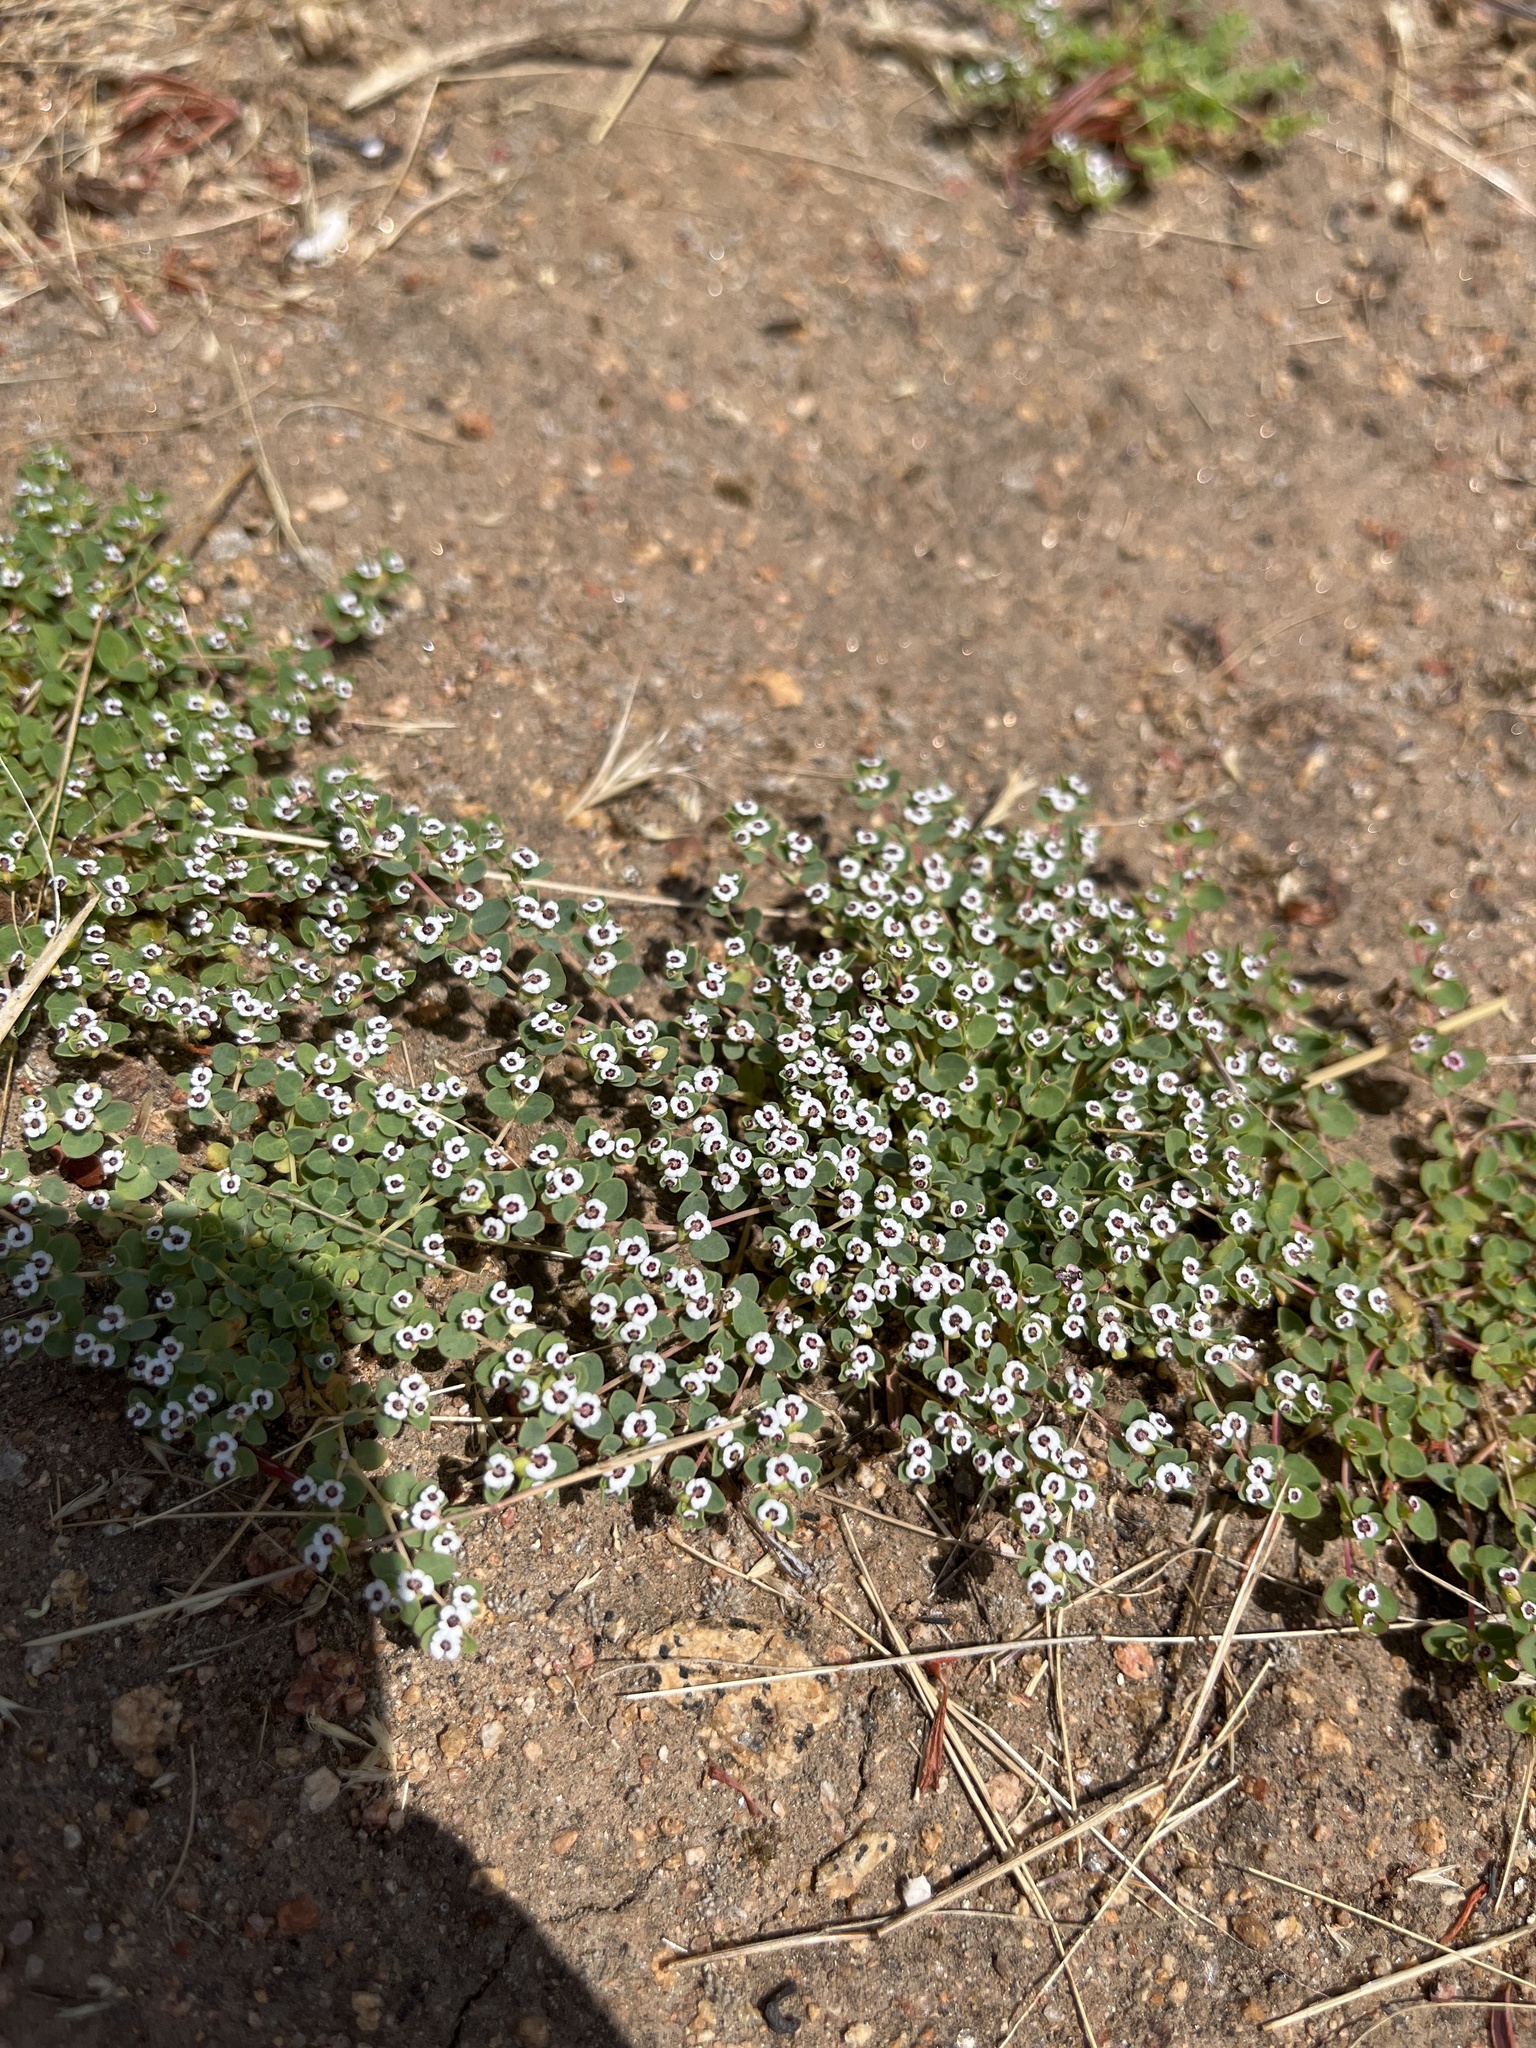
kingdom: Plantae
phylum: Tracheophyta
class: Magnoliopsida
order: Malpighiales
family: Euphorbiaceae
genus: Euphorbia
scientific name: Euphorbia polycarpa
